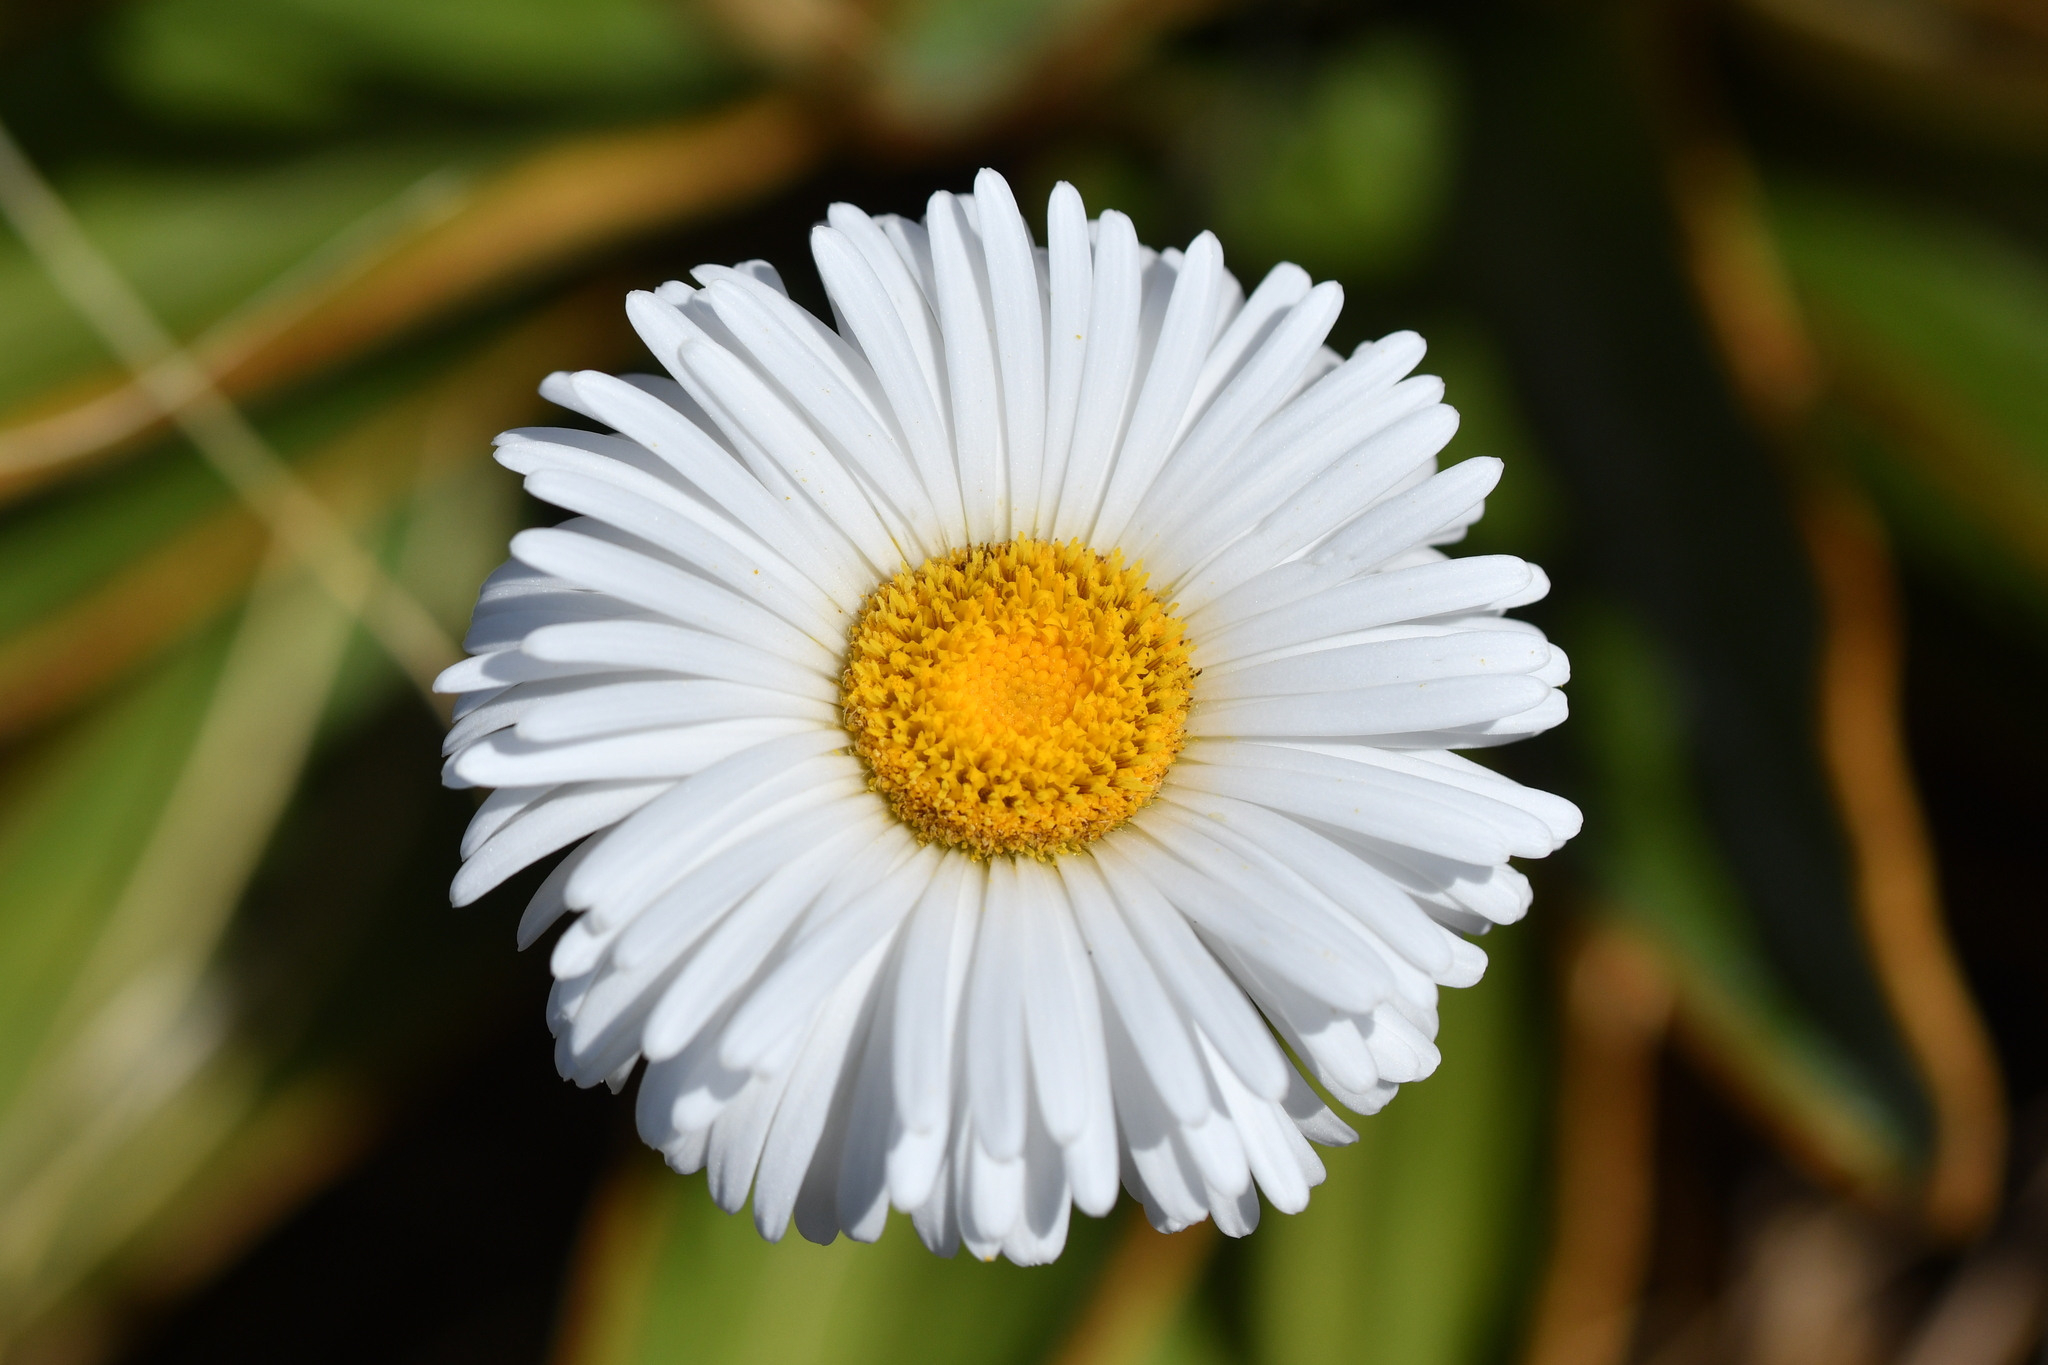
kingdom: Plantae
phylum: Tracheophyta
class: Magnoliopsida
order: Asterales
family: Asteraceae
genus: Celmisia
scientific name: Celmisia traversii
